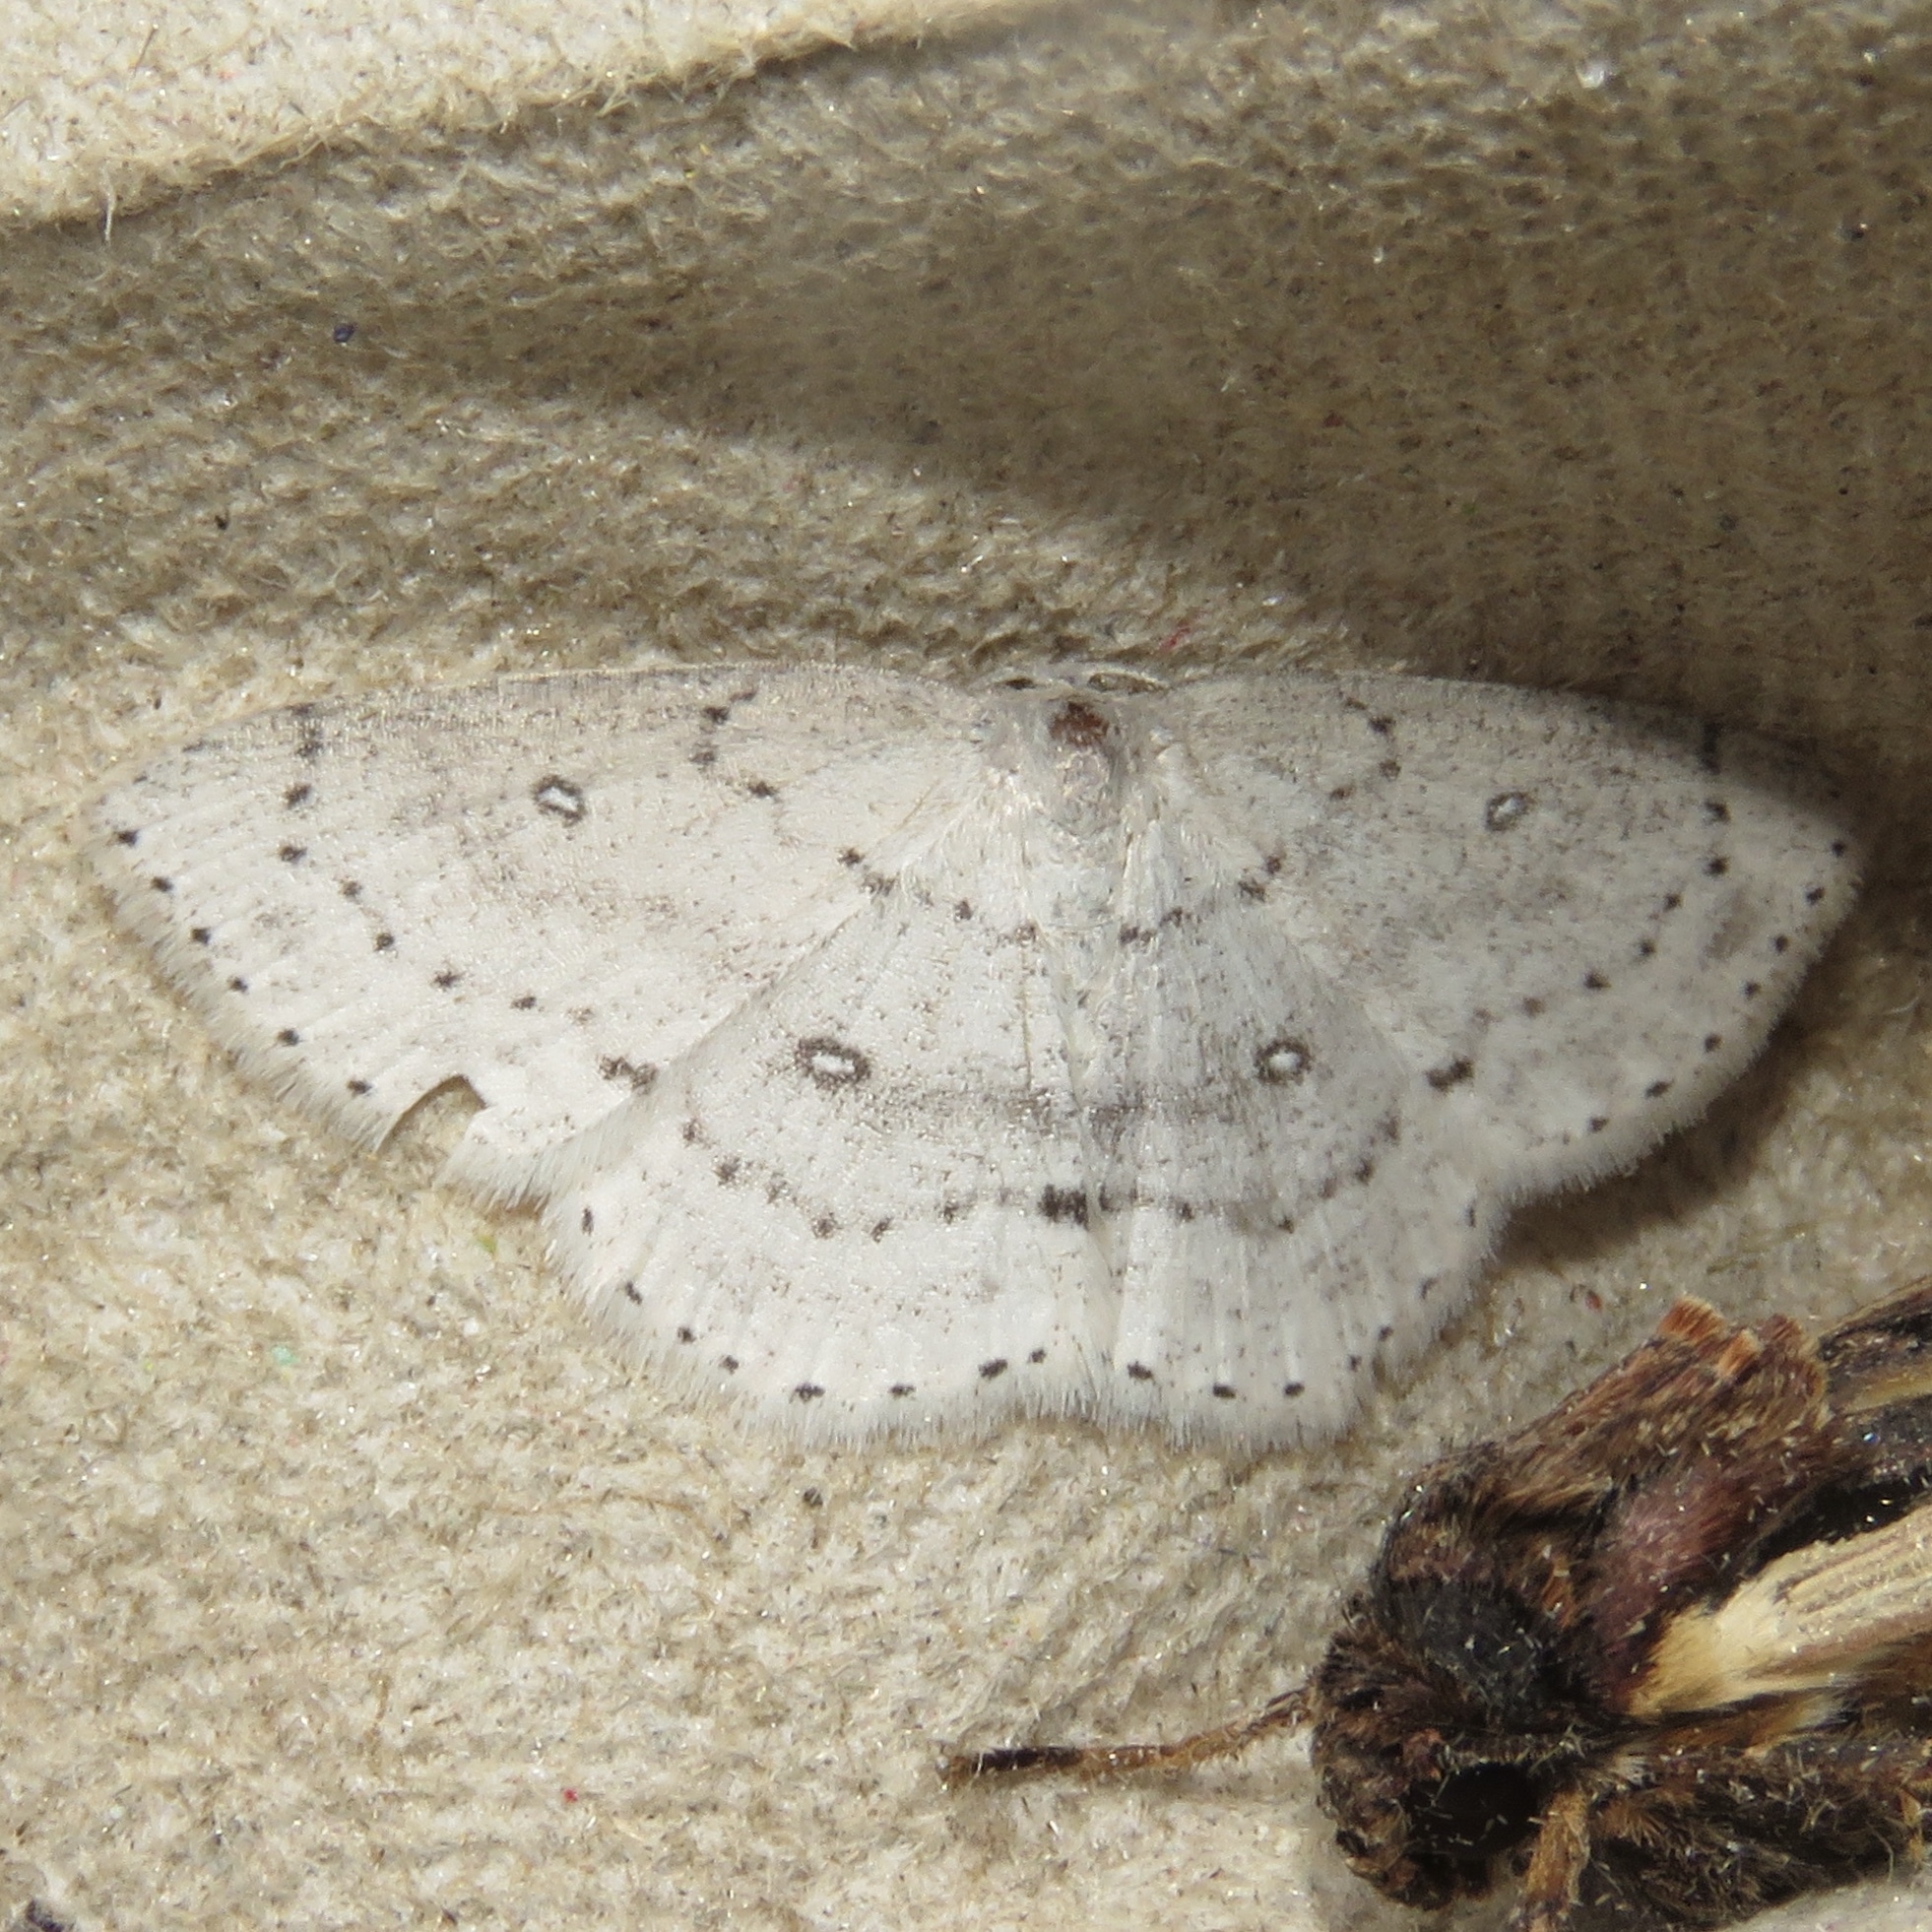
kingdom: Animalia
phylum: Arthropoda
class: Insecta
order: Lepidoptera
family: Geometridae
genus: Cyclophora
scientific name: Cyclophora pendulinaria
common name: Sweet fern geometer
